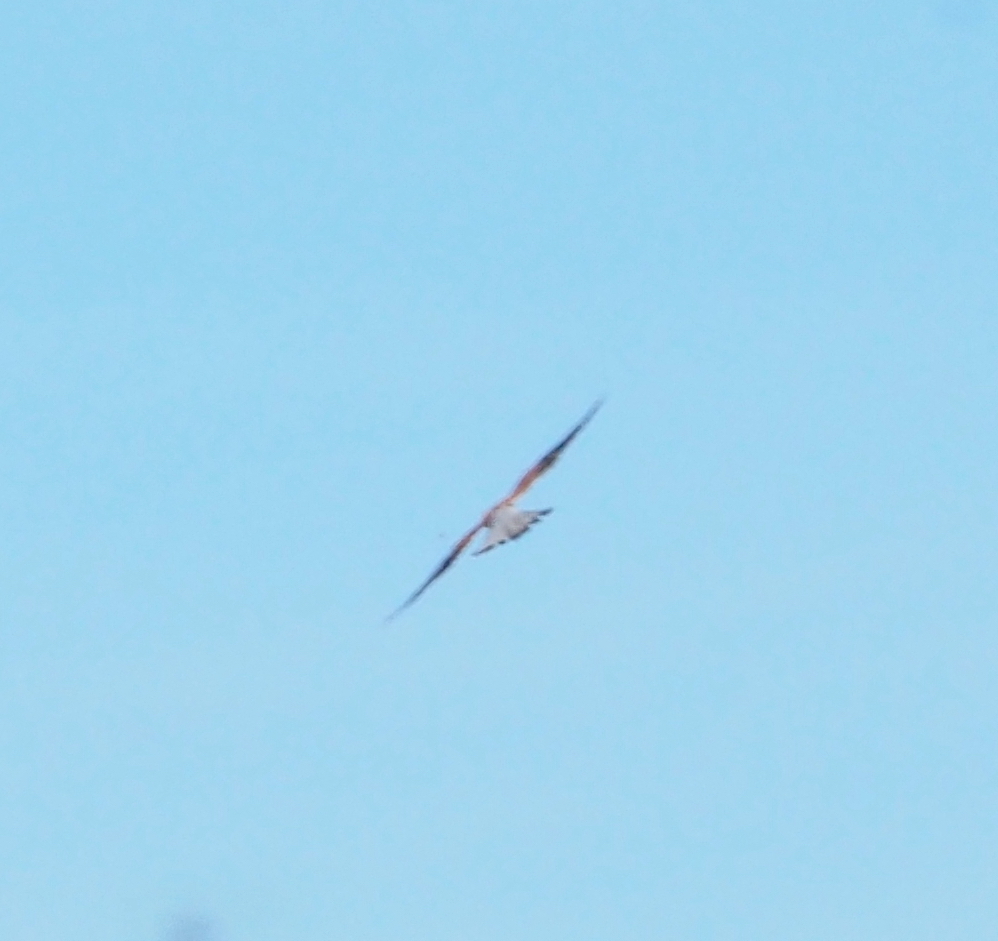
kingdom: Animalia
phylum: Chordata
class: Aves
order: Falconiformes
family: Falconidae
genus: Falco
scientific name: Falco tinnunculus
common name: Common kestrel
